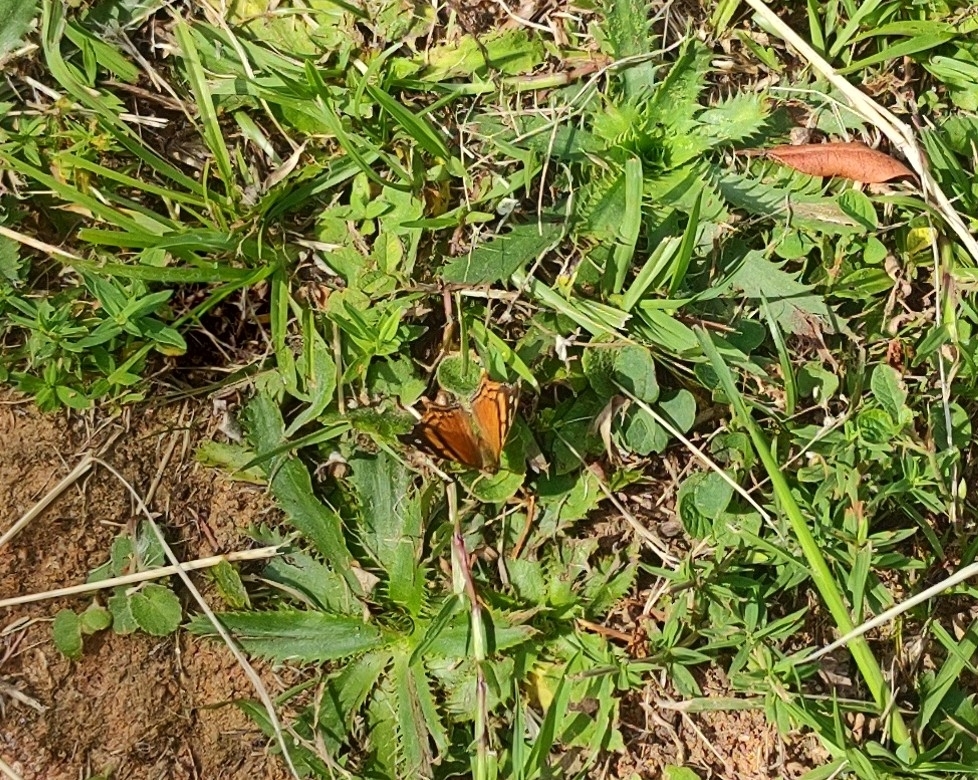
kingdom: Animalia
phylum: Arthropoda
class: Insecta
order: Lepidoptera
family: Nymphalidae
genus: Hypanartia
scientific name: Hypanartia bella
